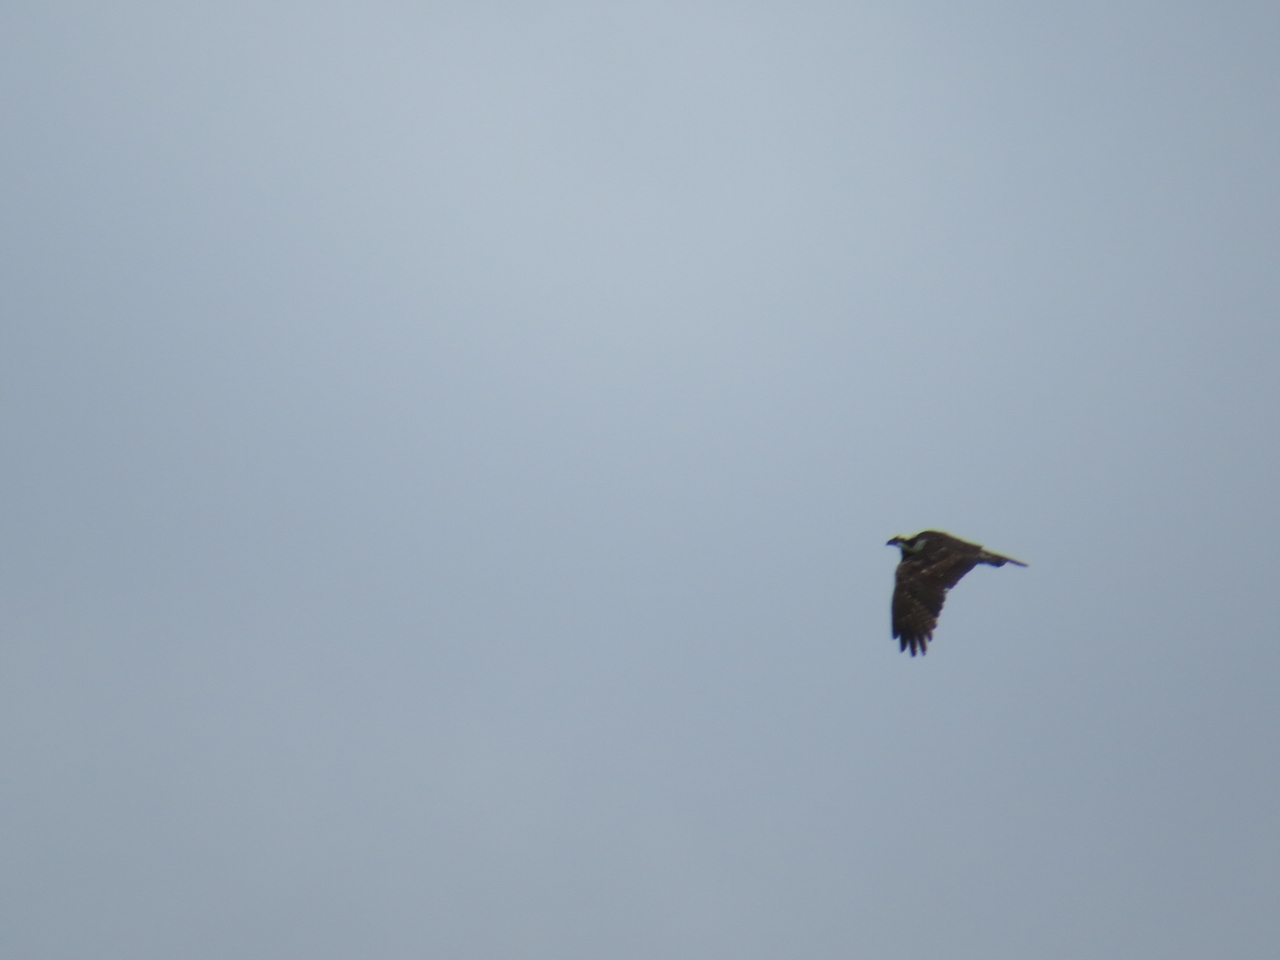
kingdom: Animalia
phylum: Chordata
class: Aves
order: Accipitriformes
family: Pandionidae
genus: Pandion
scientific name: Pandion haliaetus
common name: Osprey
